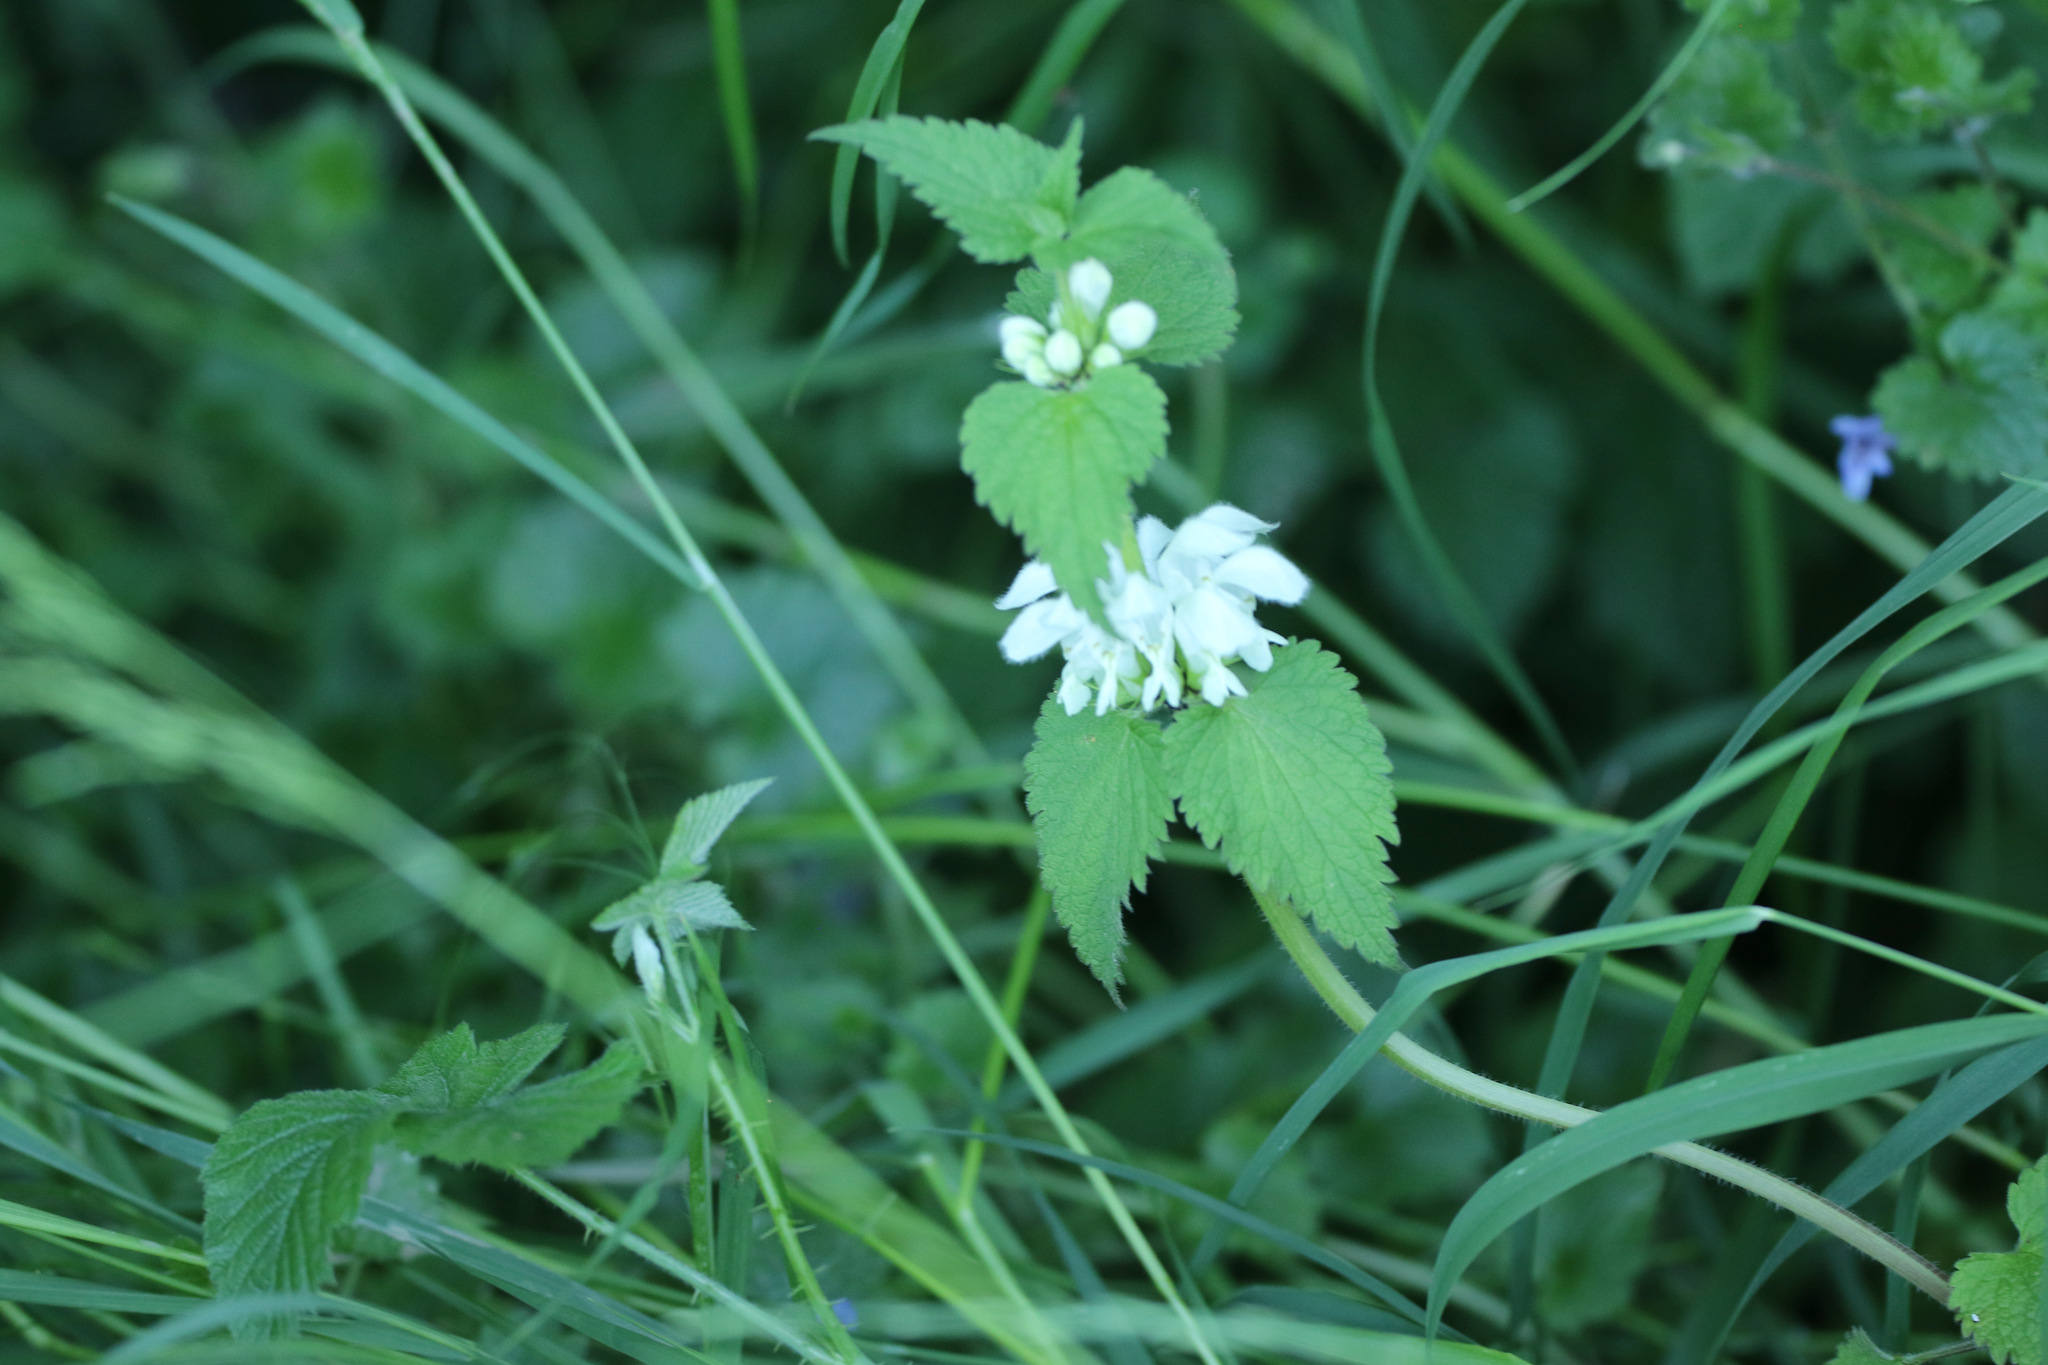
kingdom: Plantae
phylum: Tracheophyta
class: Magnoliopsida
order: Lamiales
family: Lamiaceae
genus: Lamium
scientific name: Lamium album
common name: White dead-nettle
